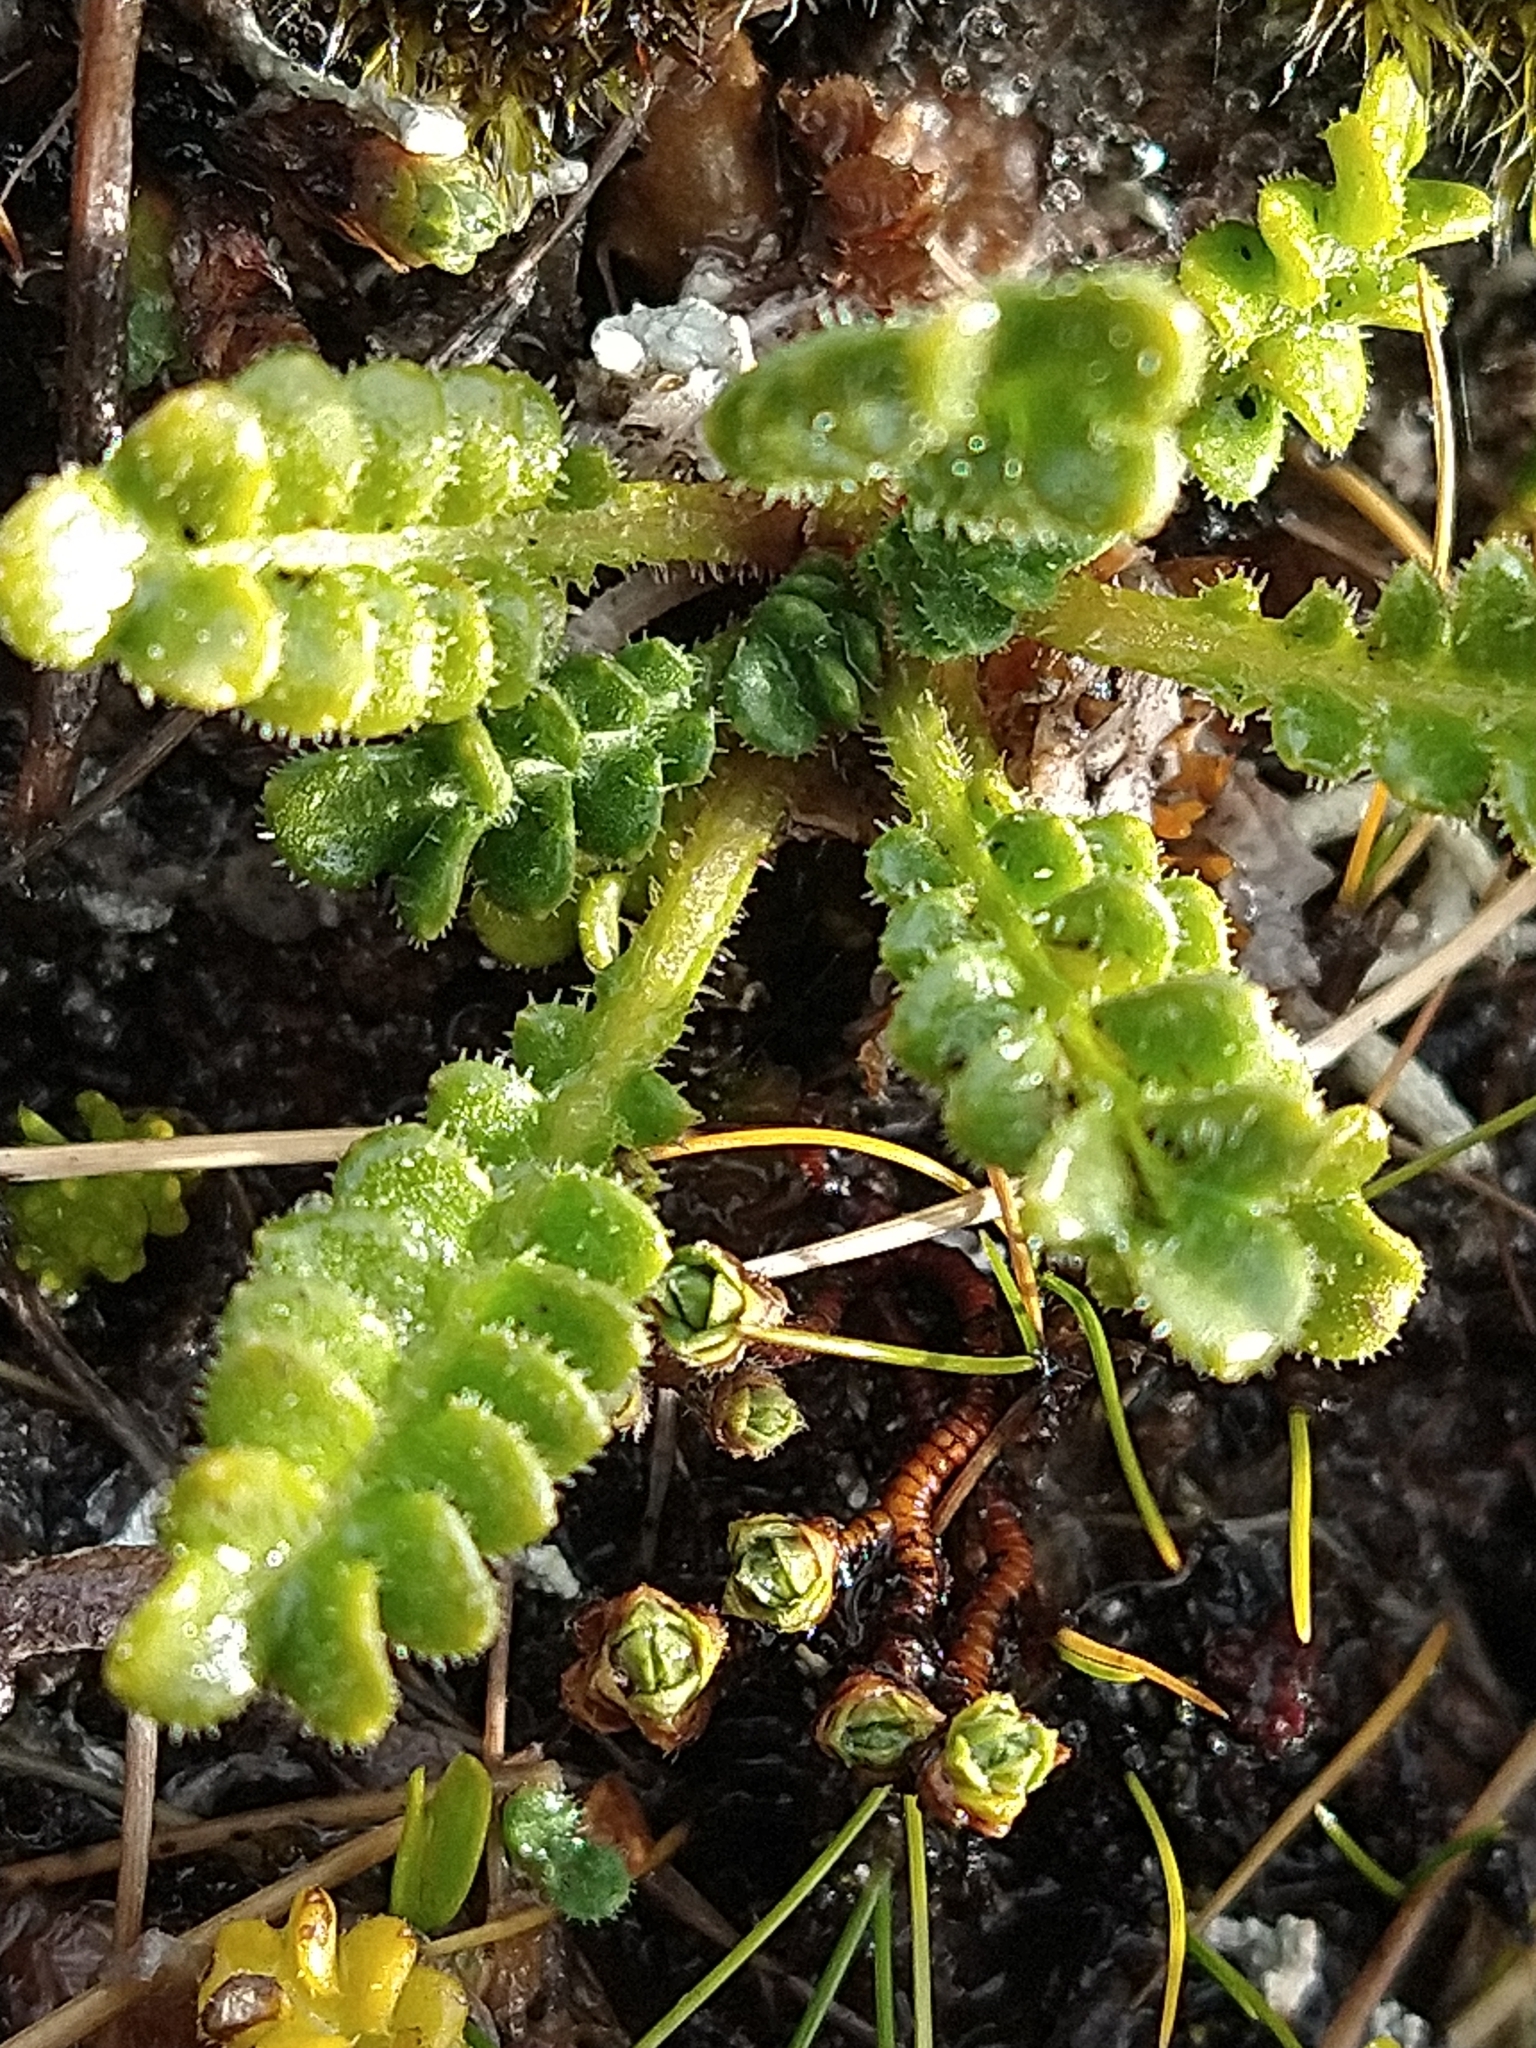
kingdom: Plantae
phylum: Tracheophyta
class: Magnoliopsida
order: Malvales
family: Thymelaeaceae
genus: Drapetes
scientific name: Drapetes muscosus
